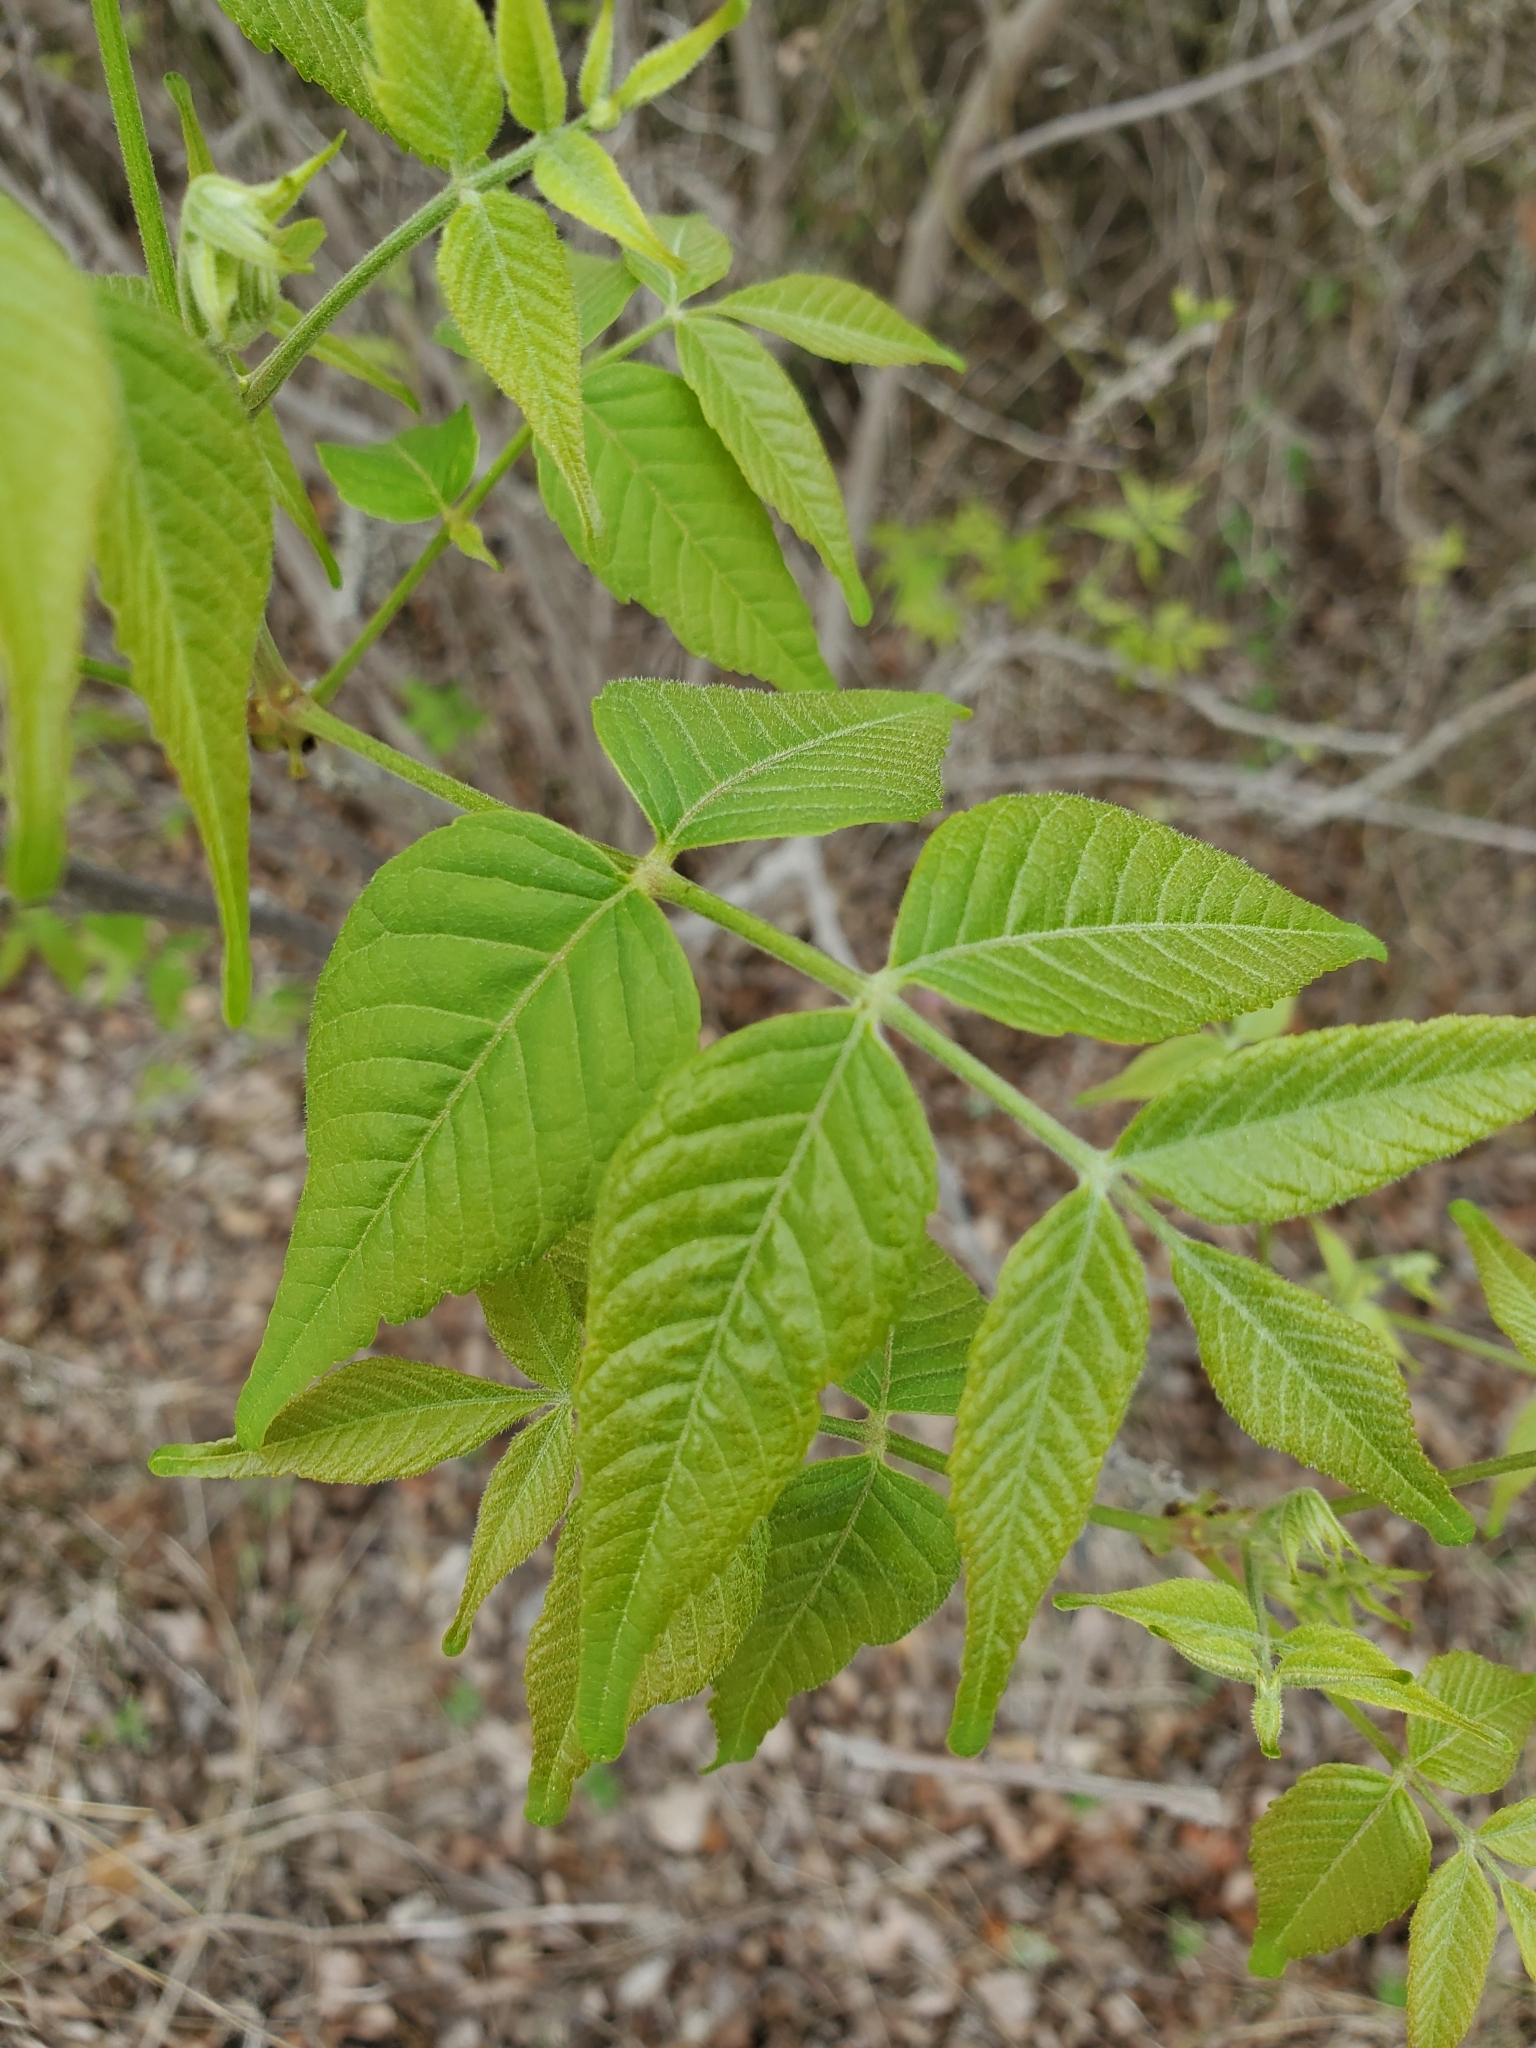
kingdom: Plantae
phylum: Tracheophyta
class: Magnoliopsida
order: Sapindales
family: Sapindaceae
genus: Ungnadia
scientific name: Ungnadia speciosa
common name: Texas-buckeye
